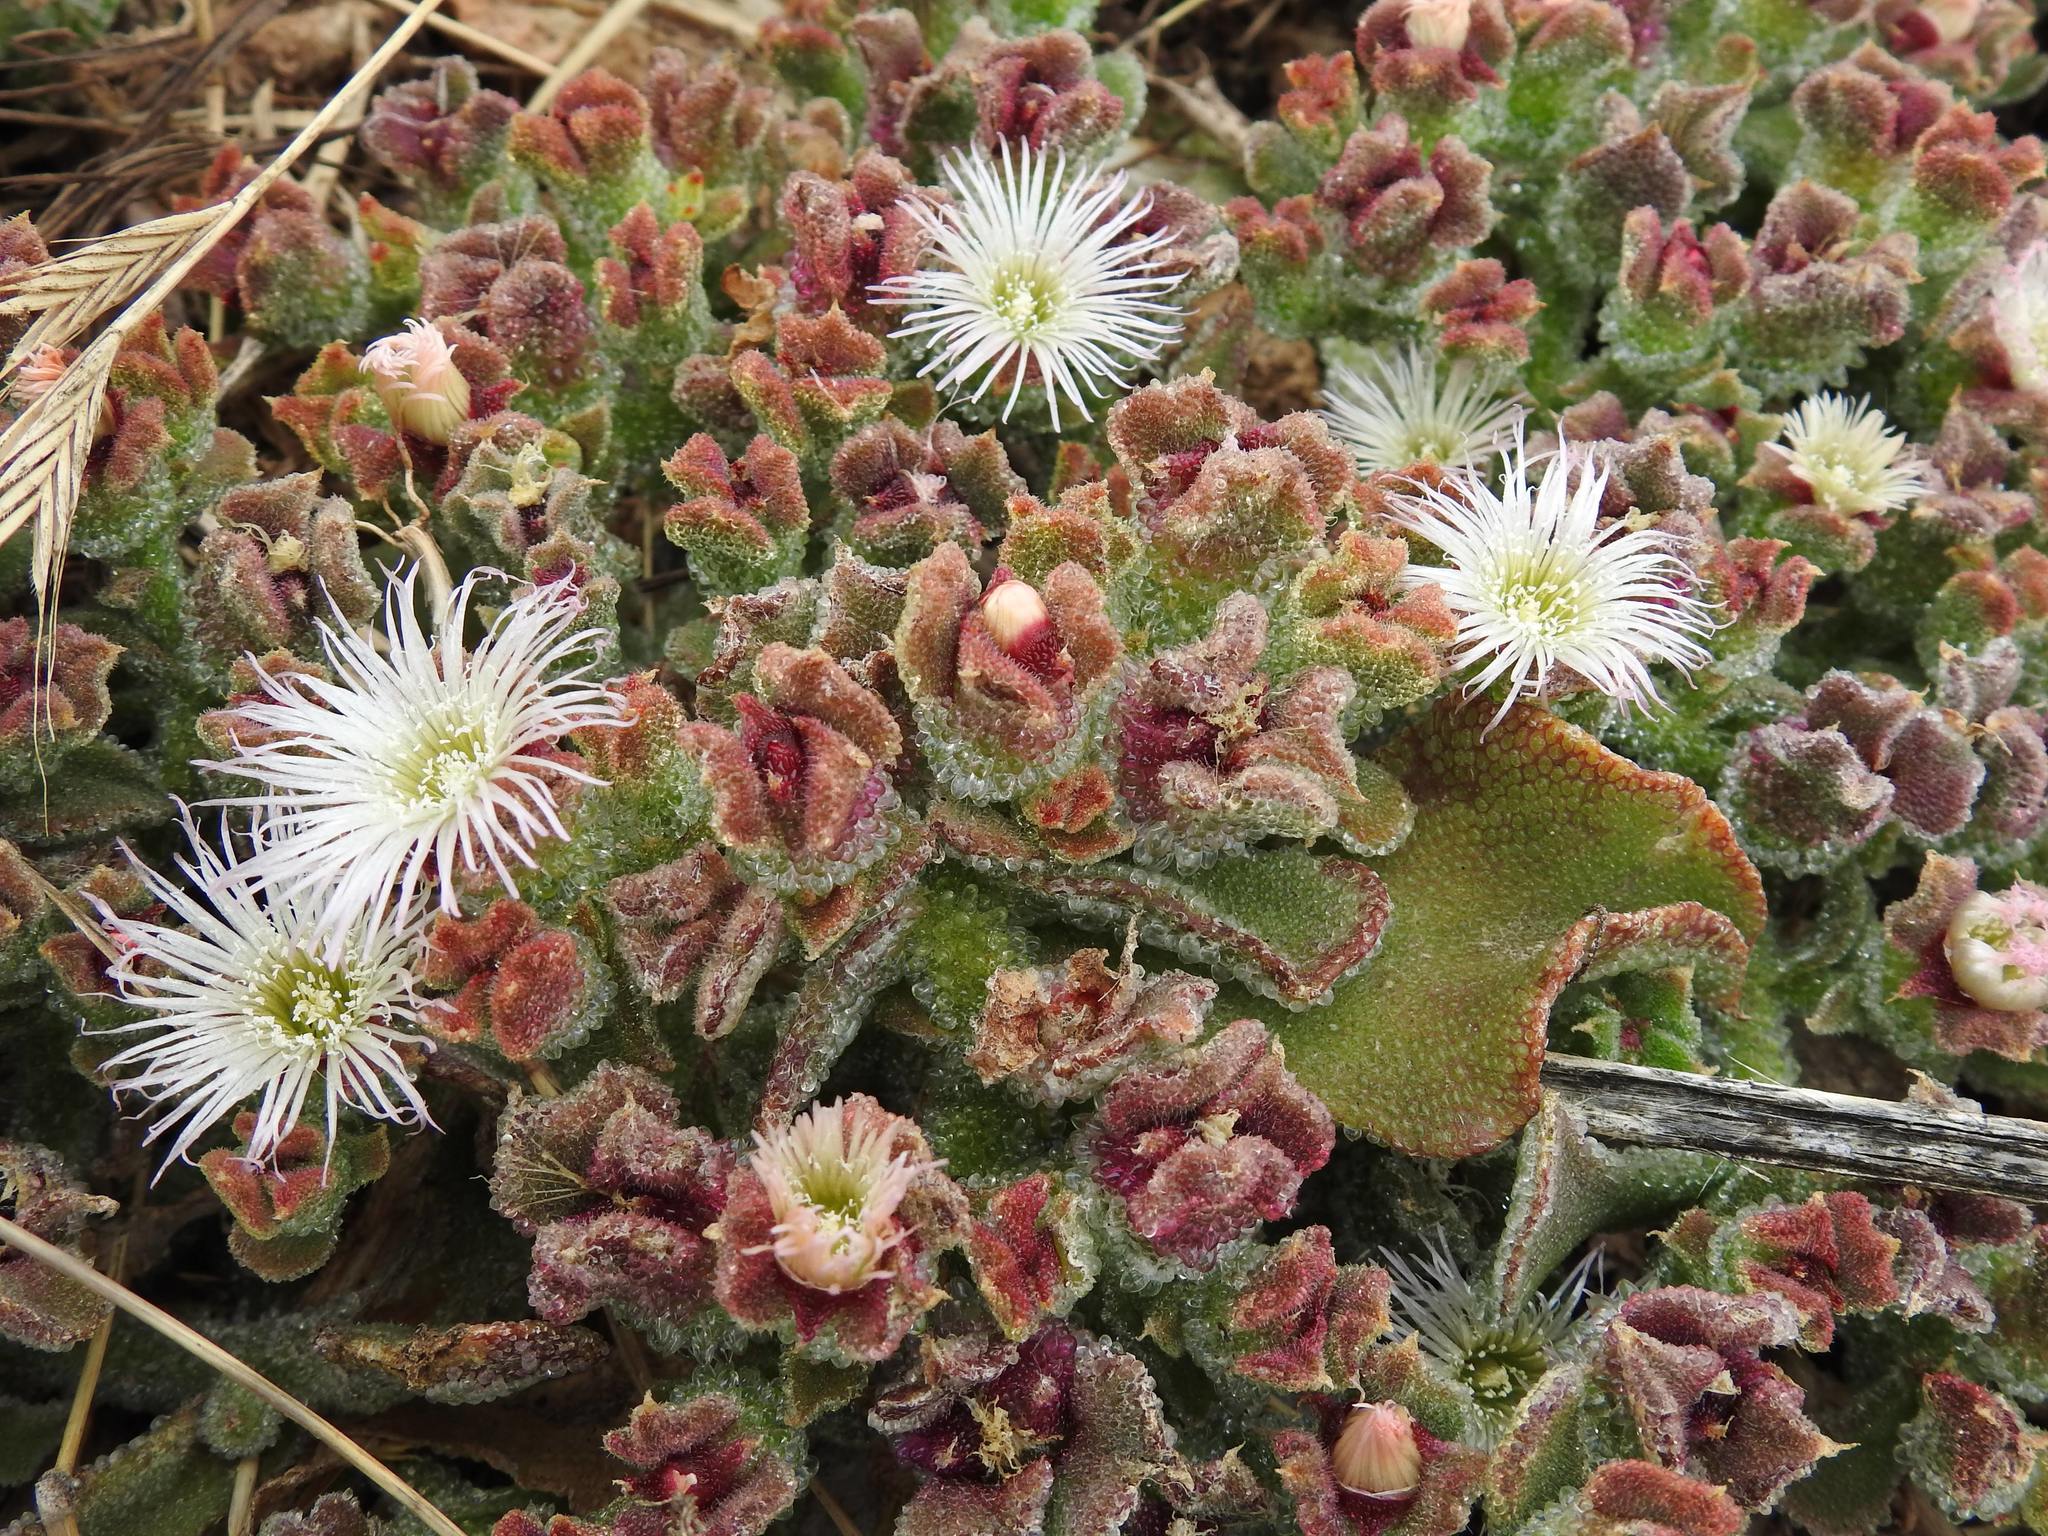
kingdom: Plantae
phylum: Tracheophyta
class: Magnoliopsida
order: Caryophyllales
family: Aizoaceae
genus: Mesembryanthemum
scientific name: Mesembryanthemum crystallinum
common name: Common iceplant
